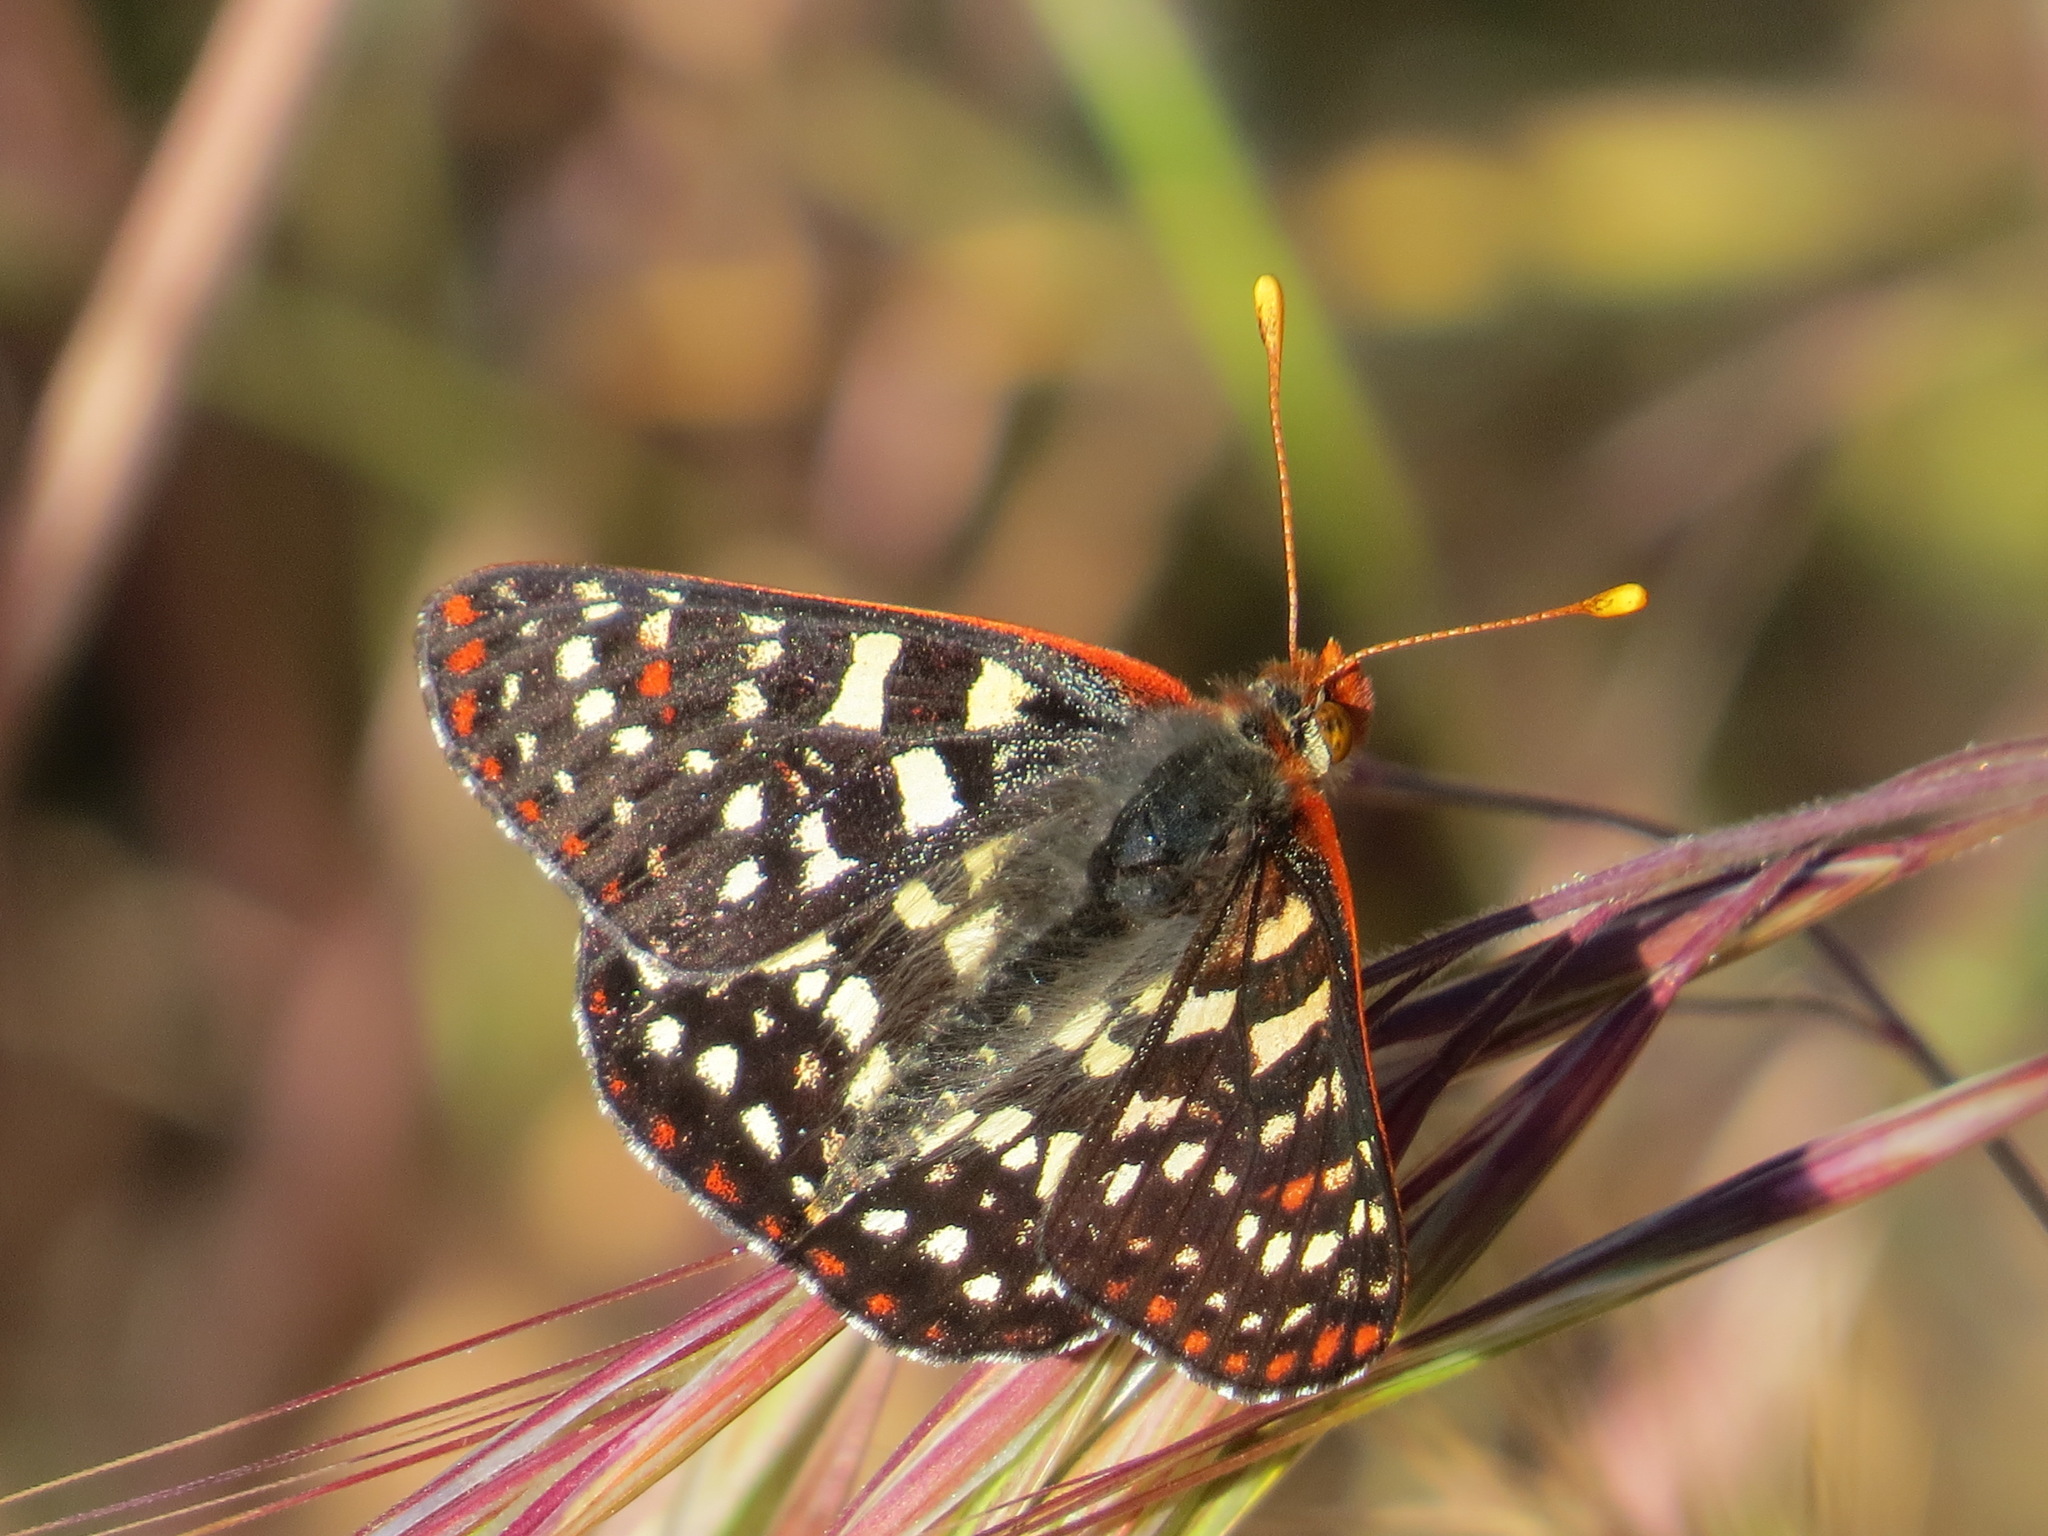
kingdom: Animalia
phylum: Arthropoda
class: Insecta
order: Lepidoptera
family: Nymphalidae
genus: Occidryas
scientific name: Occidryas chalcedona
